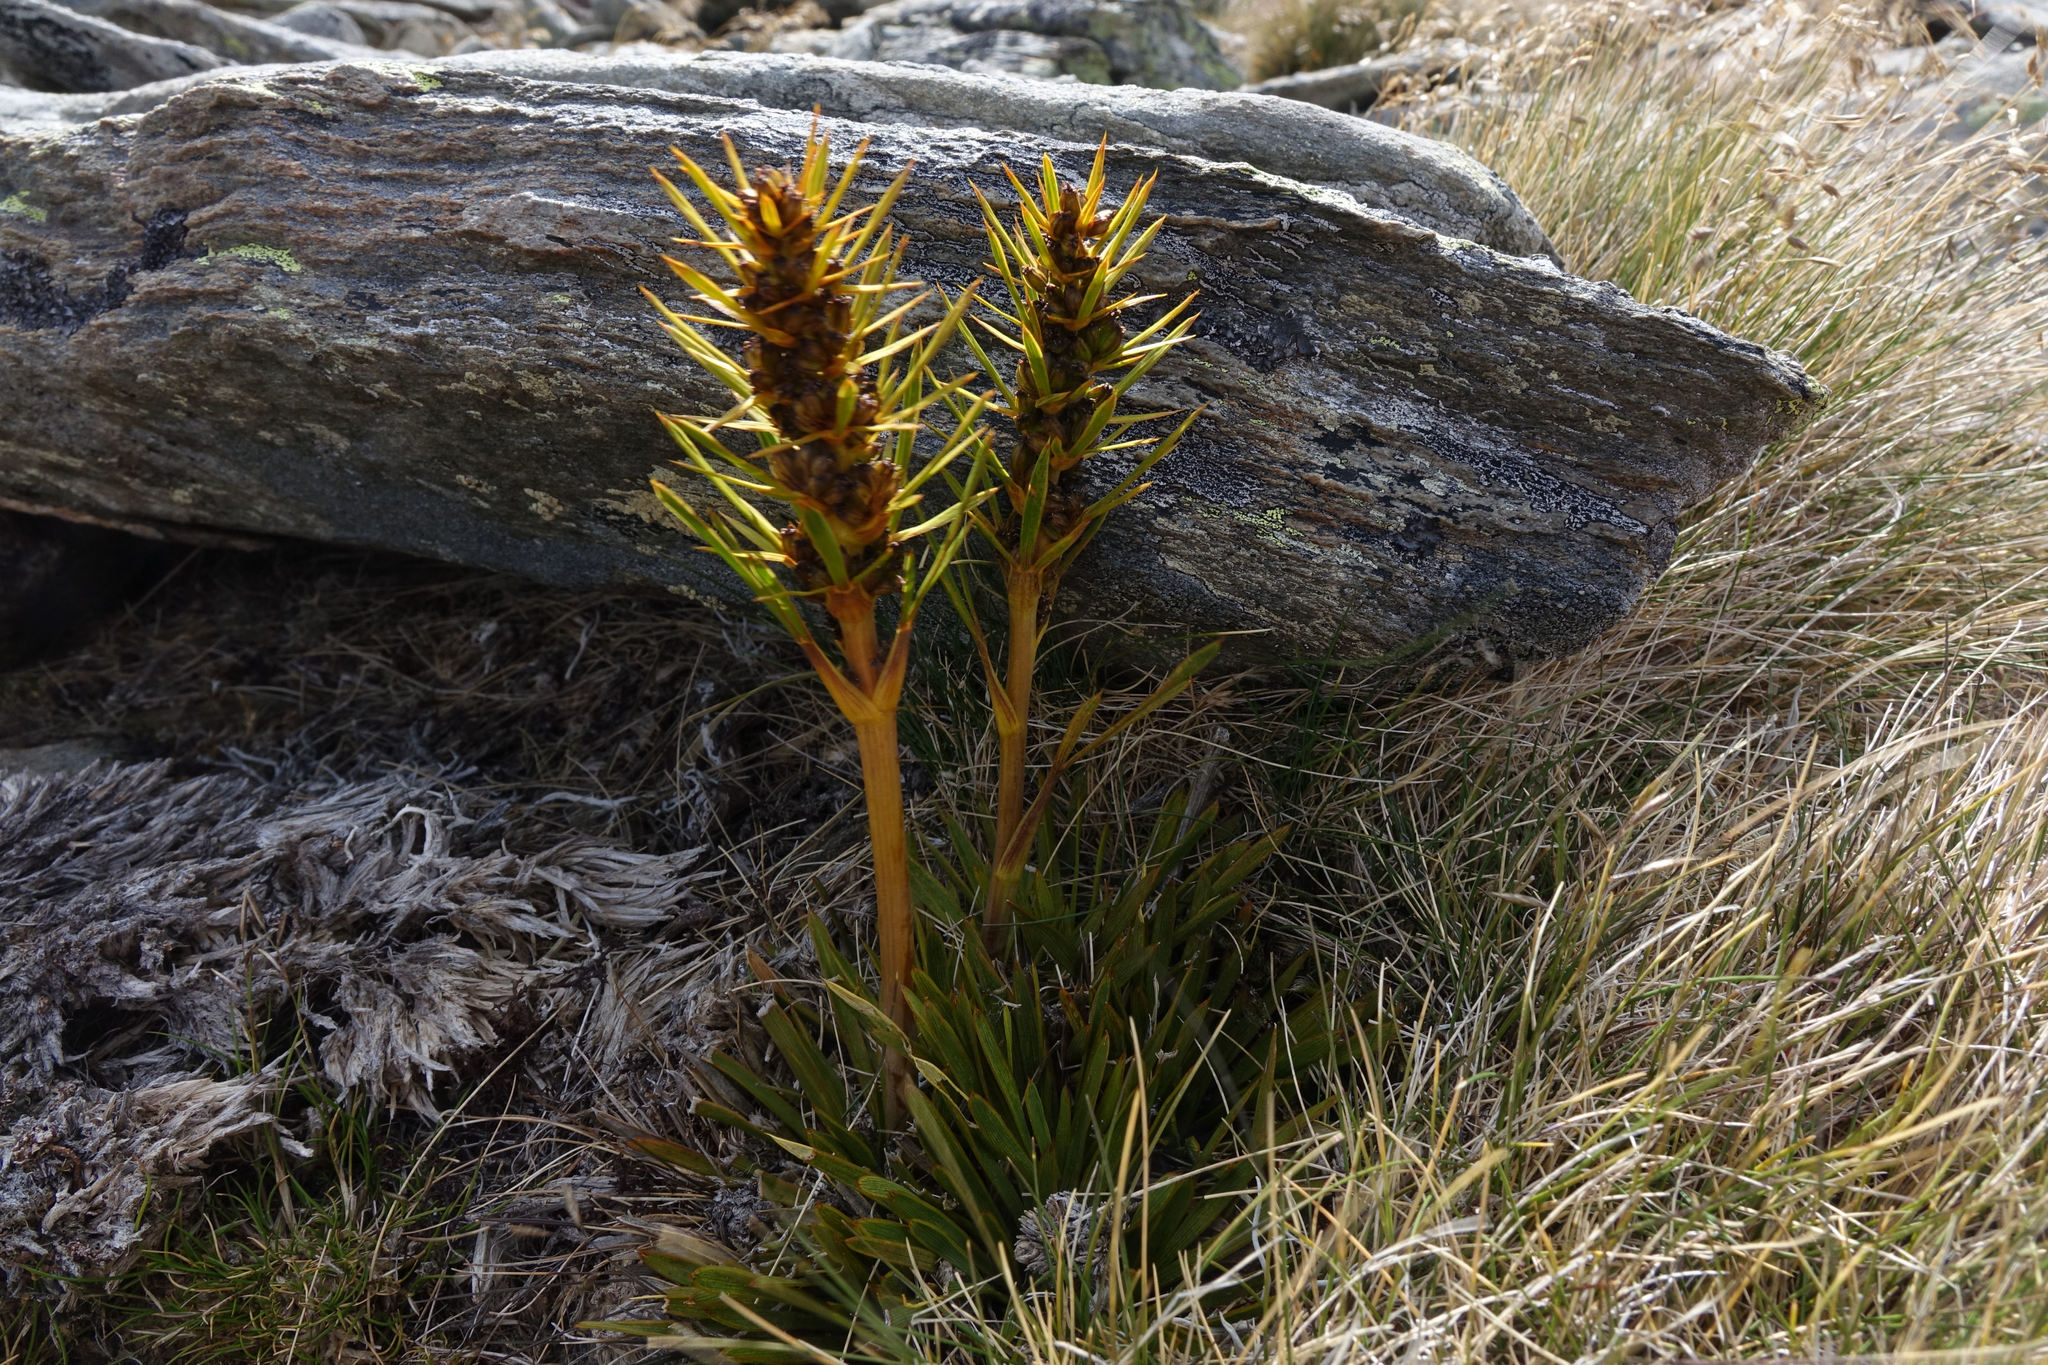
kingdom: Plantae
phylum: Tracheophyta
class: Magnoliopsida
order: Apiales
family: Apiaceae
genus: Aciphylla
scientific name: Aciphylla verticillata
